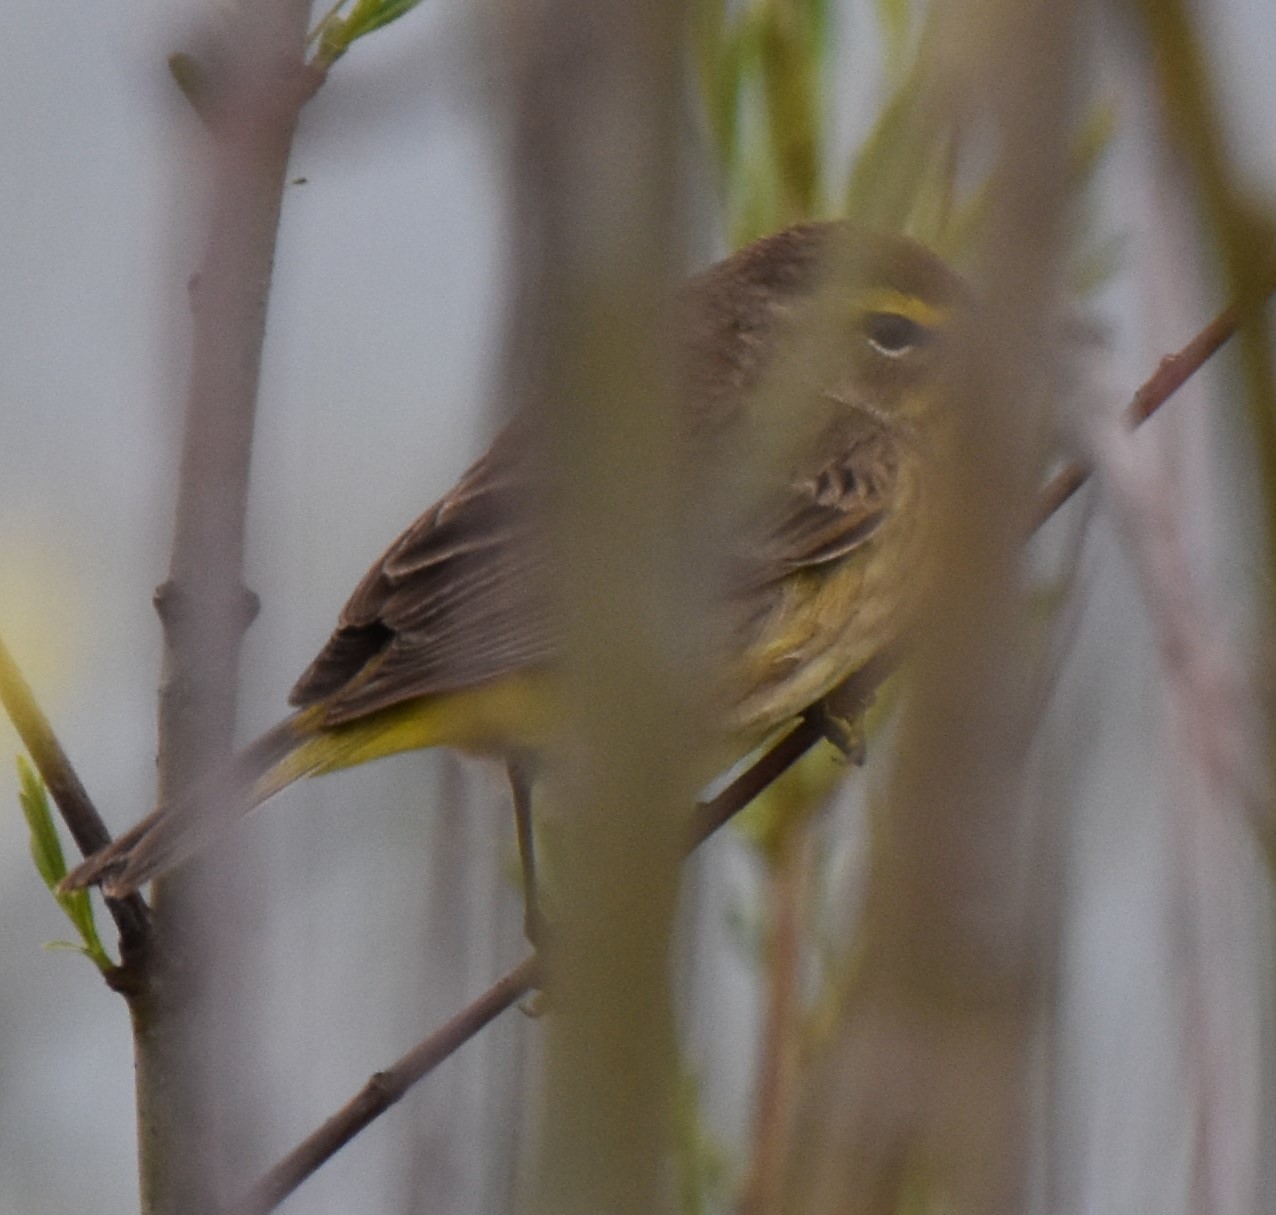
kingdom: Animalia
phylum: Chordata
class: Aves
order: Passeriformes
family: Parulidae
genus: Setophaga
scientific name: Setophaga palmarum
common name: Palm warbler
